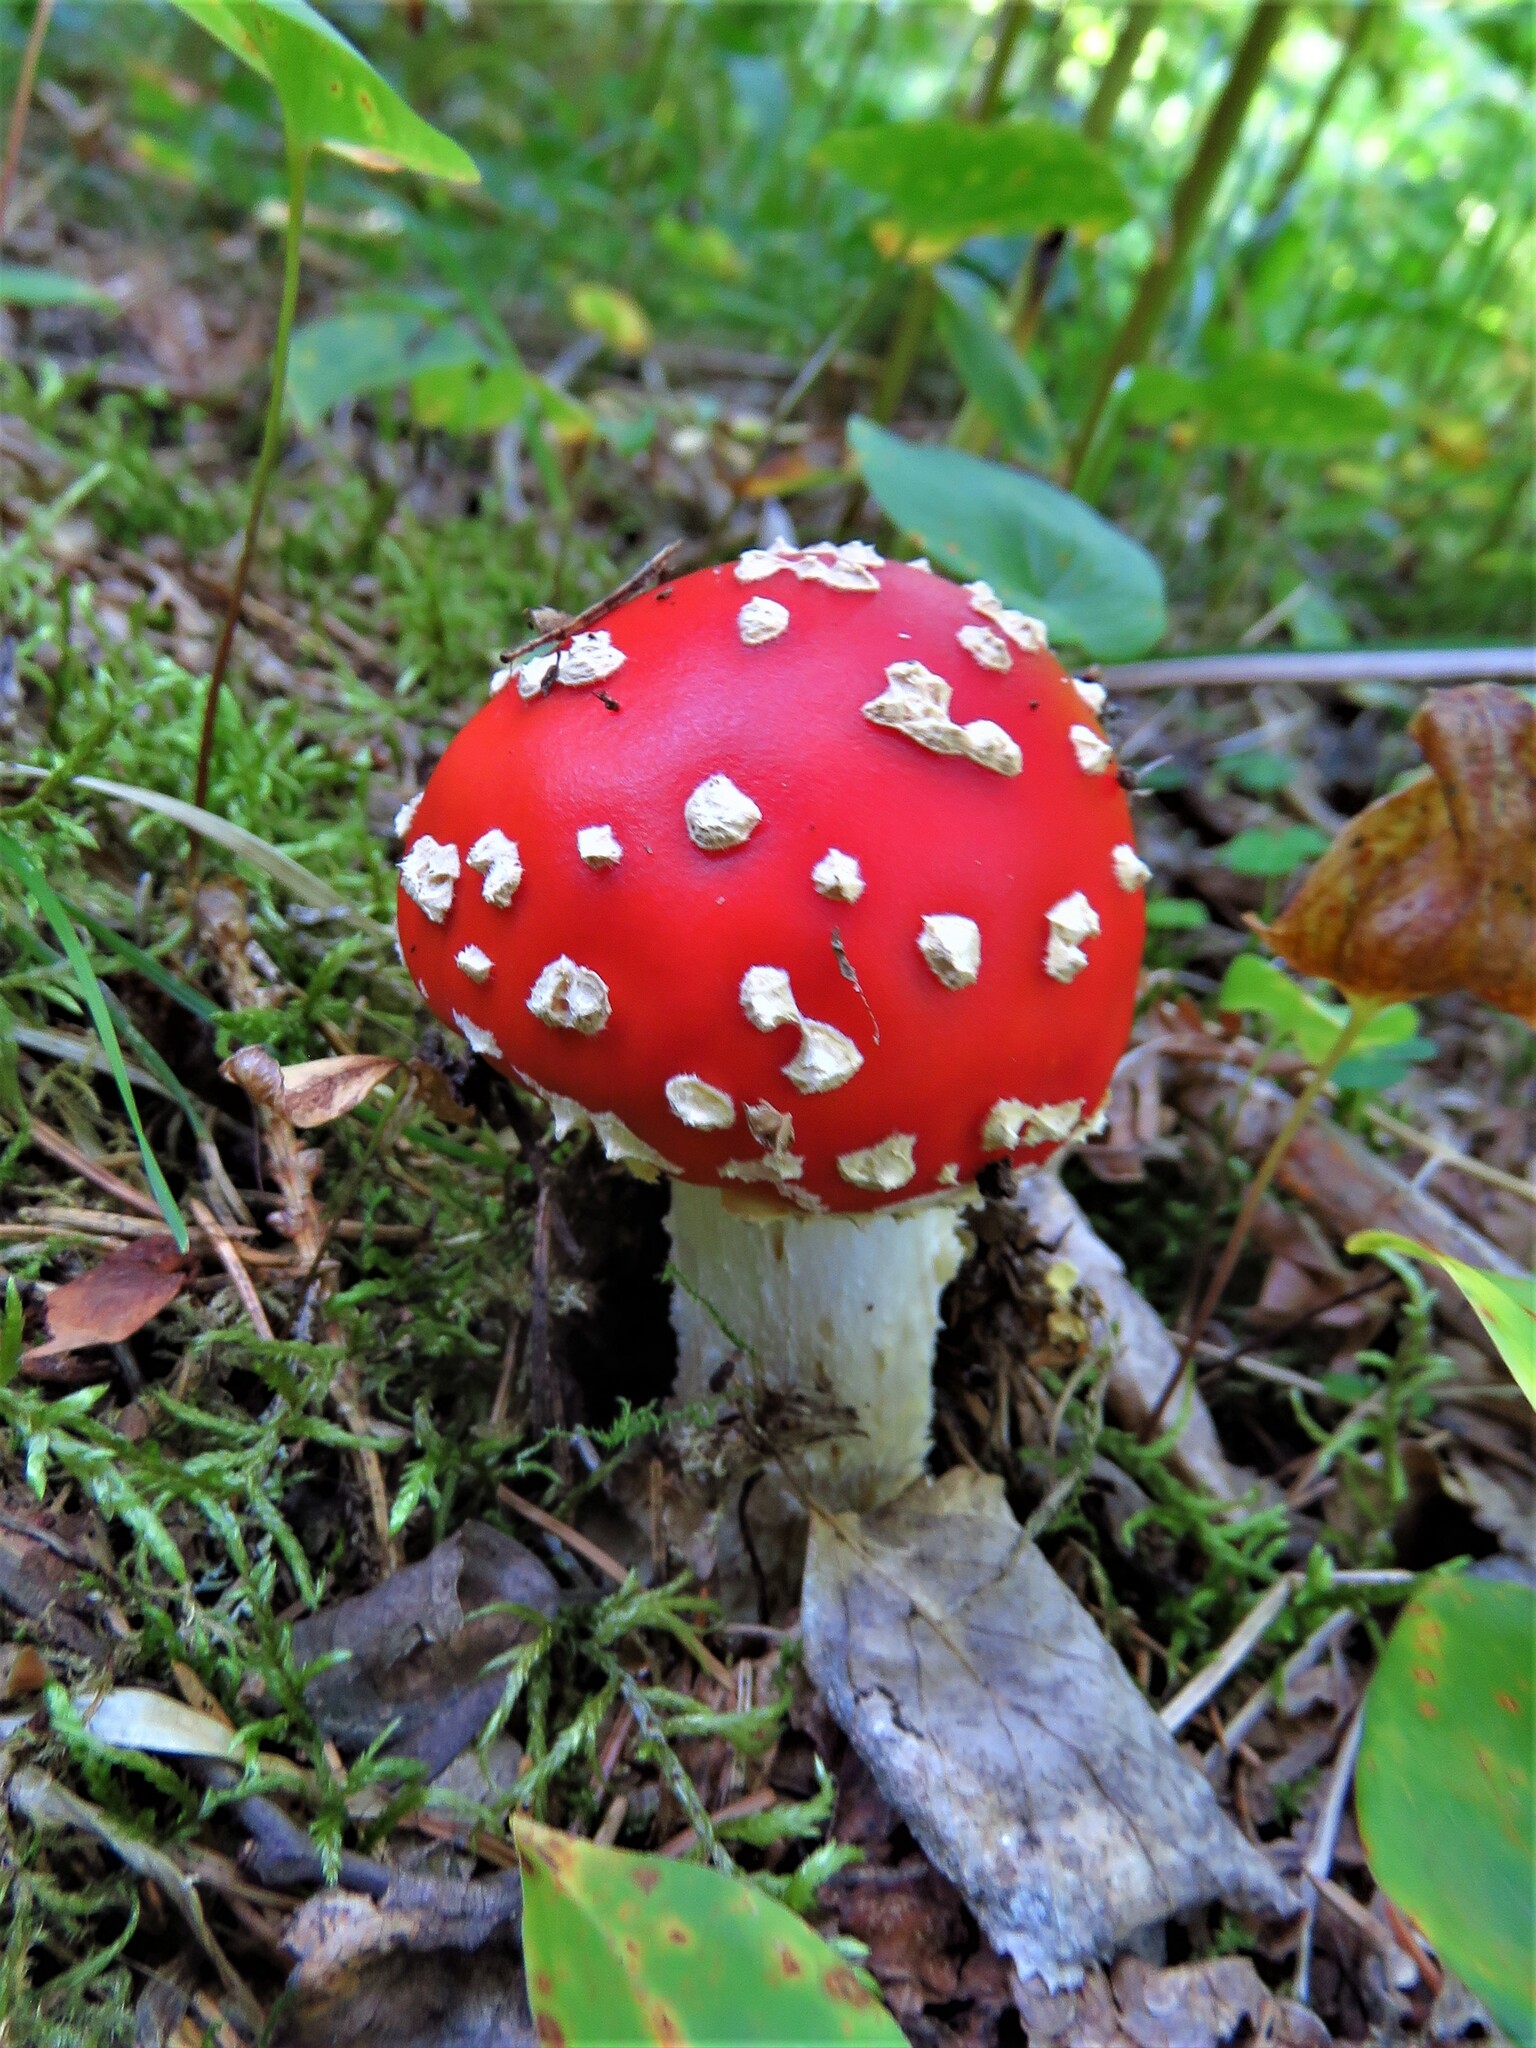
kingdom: Fungi
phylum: Basidiomycota
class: Agaricomycetes
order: Agaricales
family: Amanitaceae
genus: Amanita
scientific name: Amanita muscaria
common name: Fly agaric
